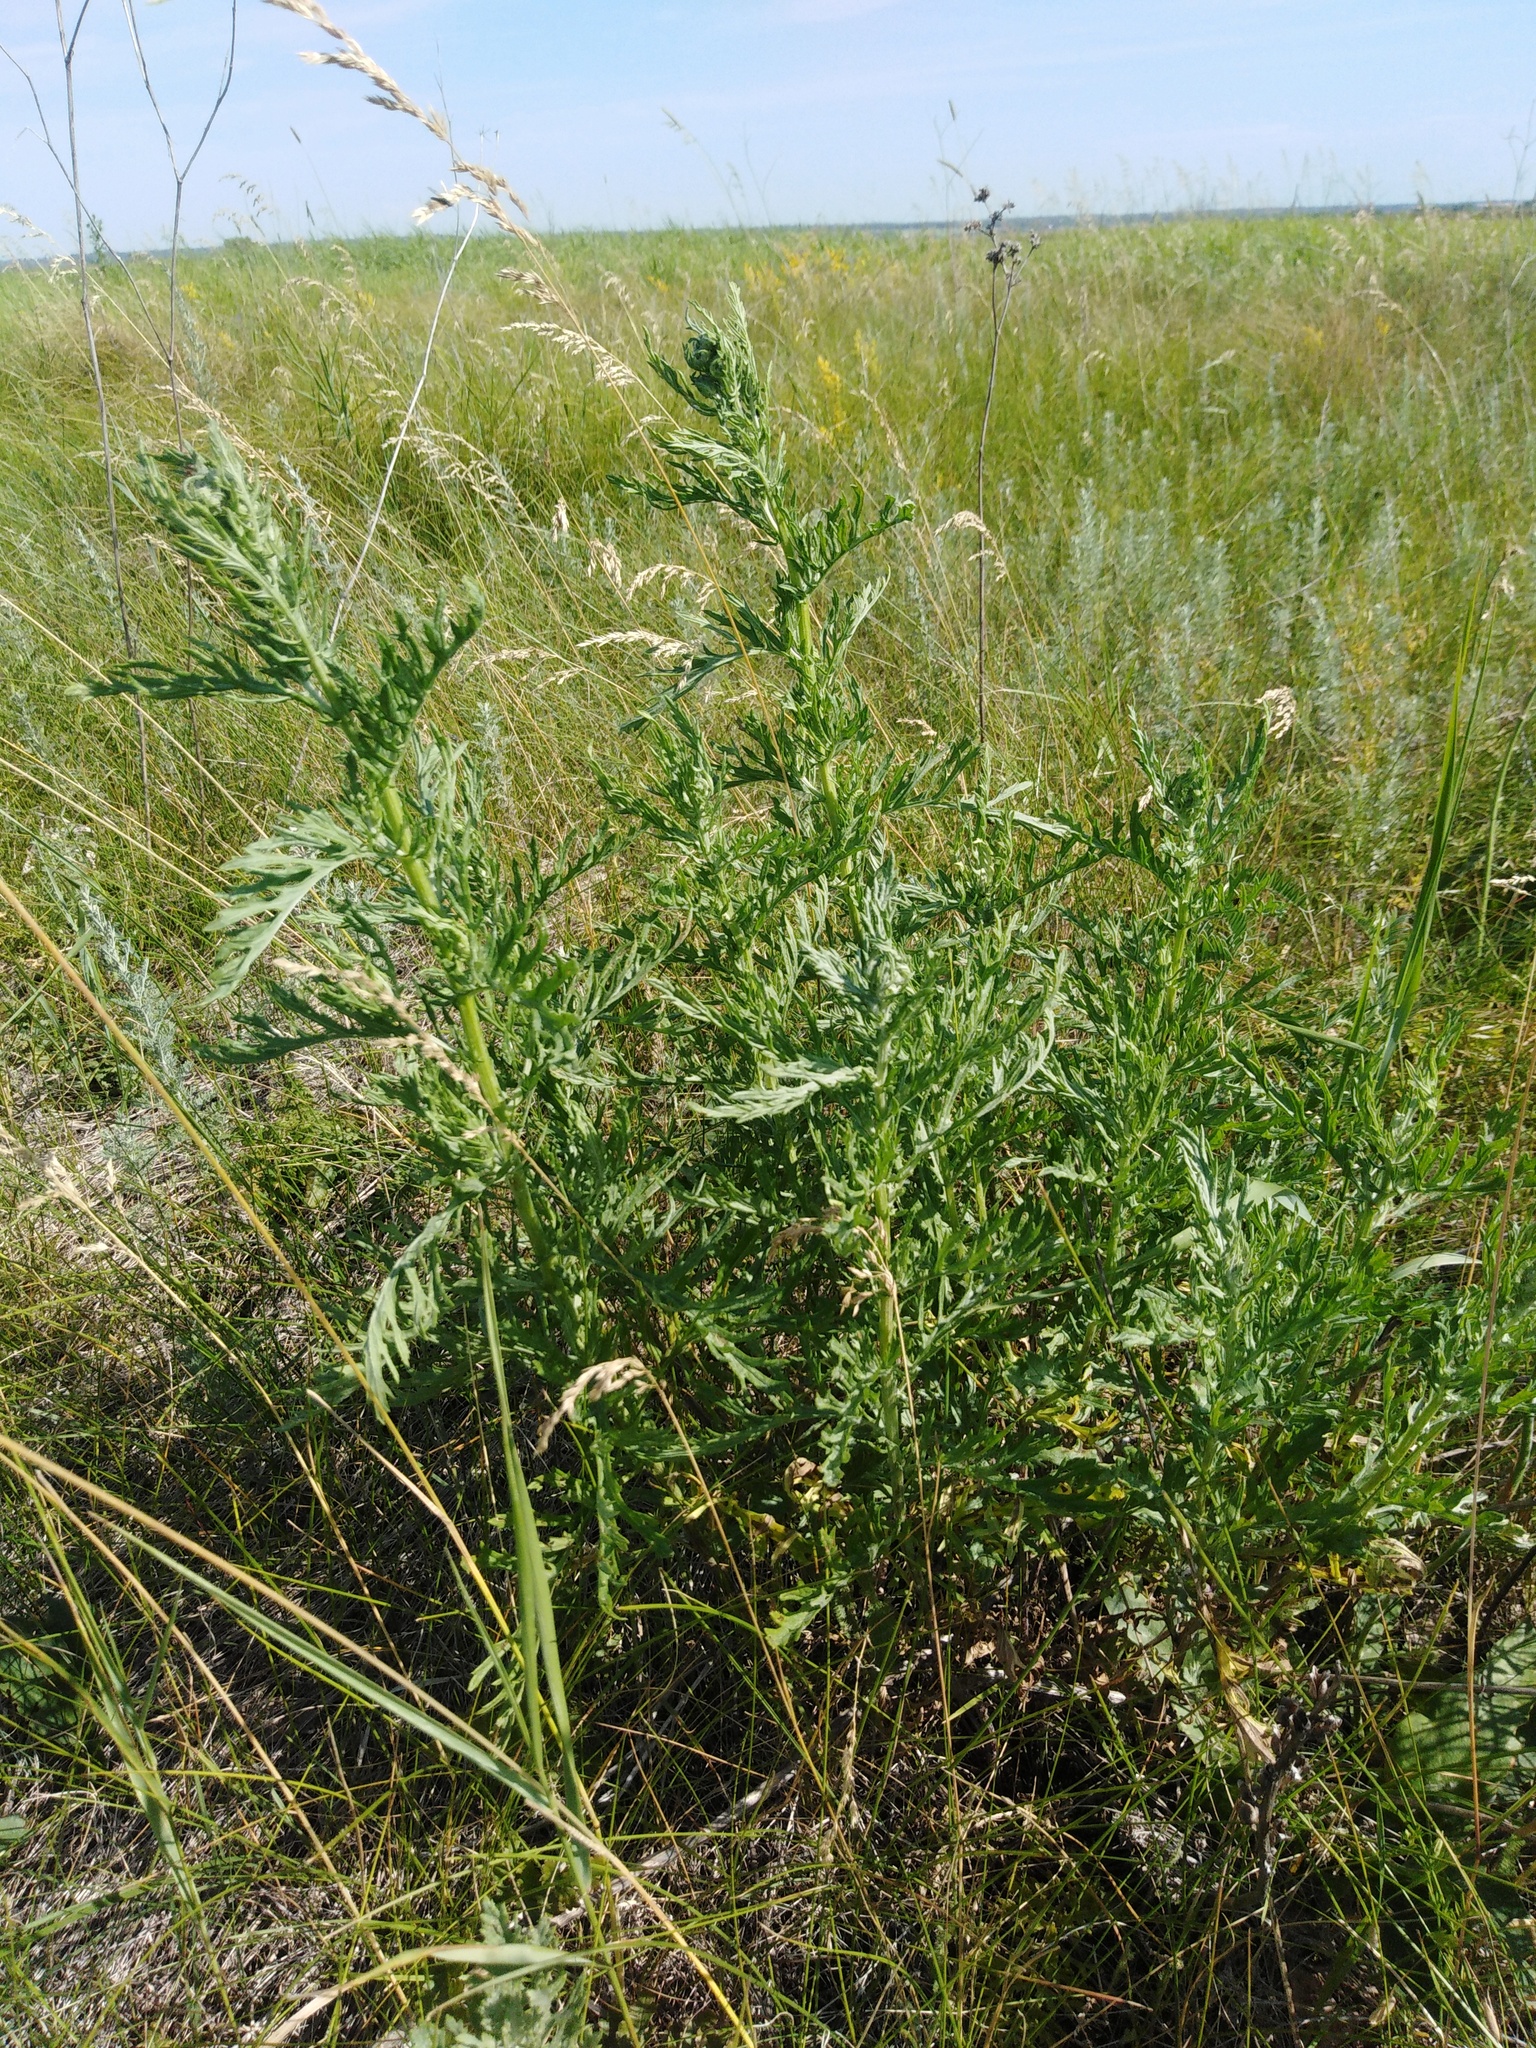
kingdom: Plantae
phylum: Tracheophyta
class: Magnoliopsida
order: Asterales
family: Asteraceae
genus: Jacobaea
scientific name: Jacobaea erucifolia
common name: Hoary ragwort
